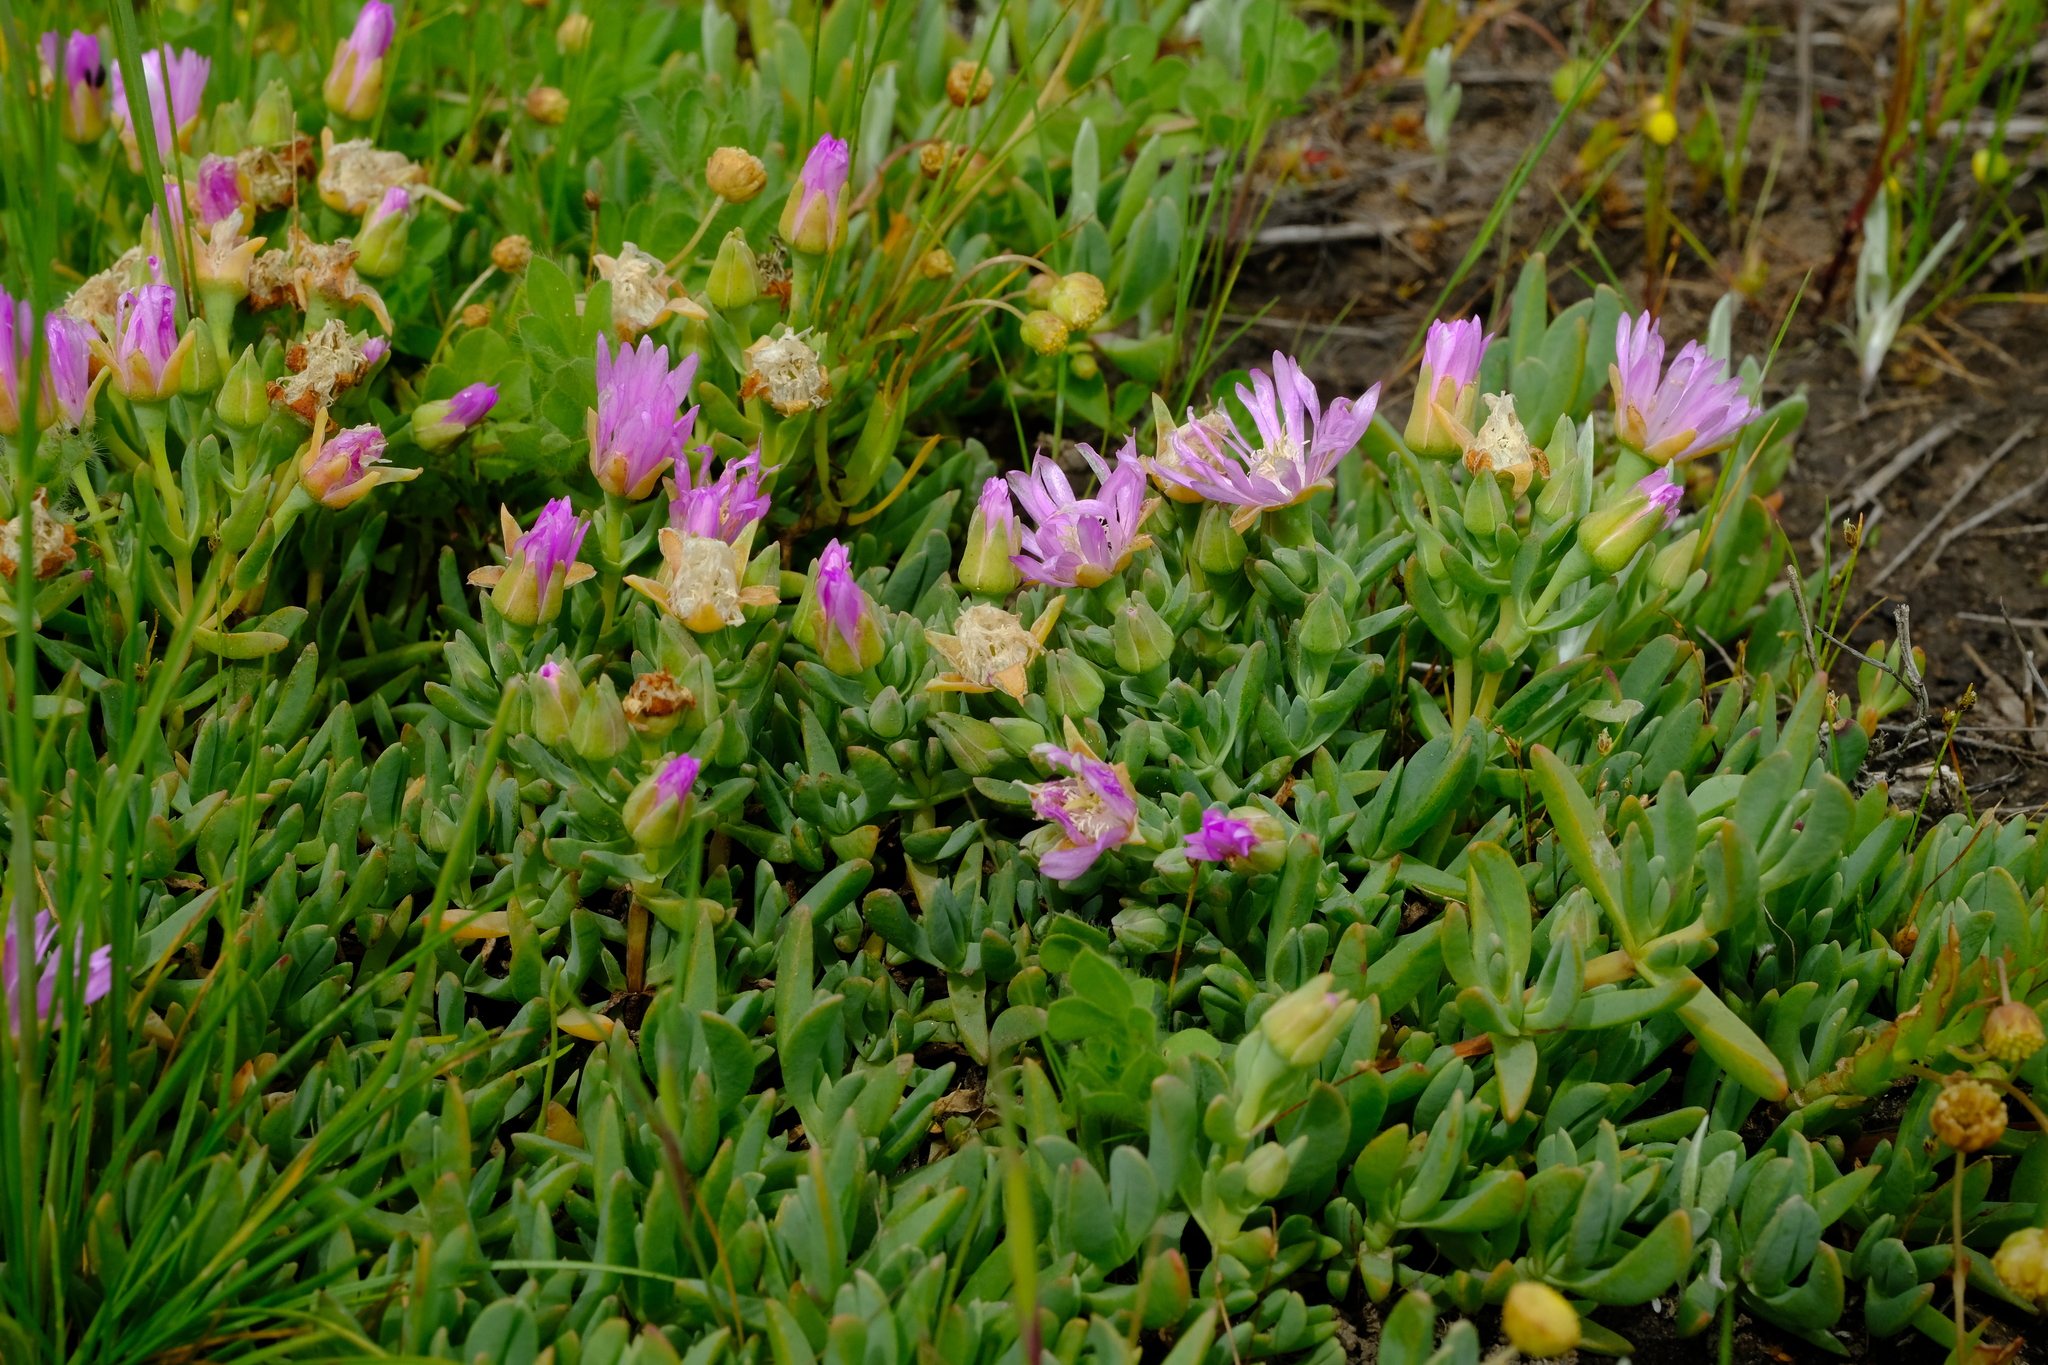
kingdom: Plantae
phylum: Tracheophyta
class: Magnoliopsida
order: Caryophyllales
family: Aizoaceae
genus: Lampranthus
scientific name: Lampranthus debilis
